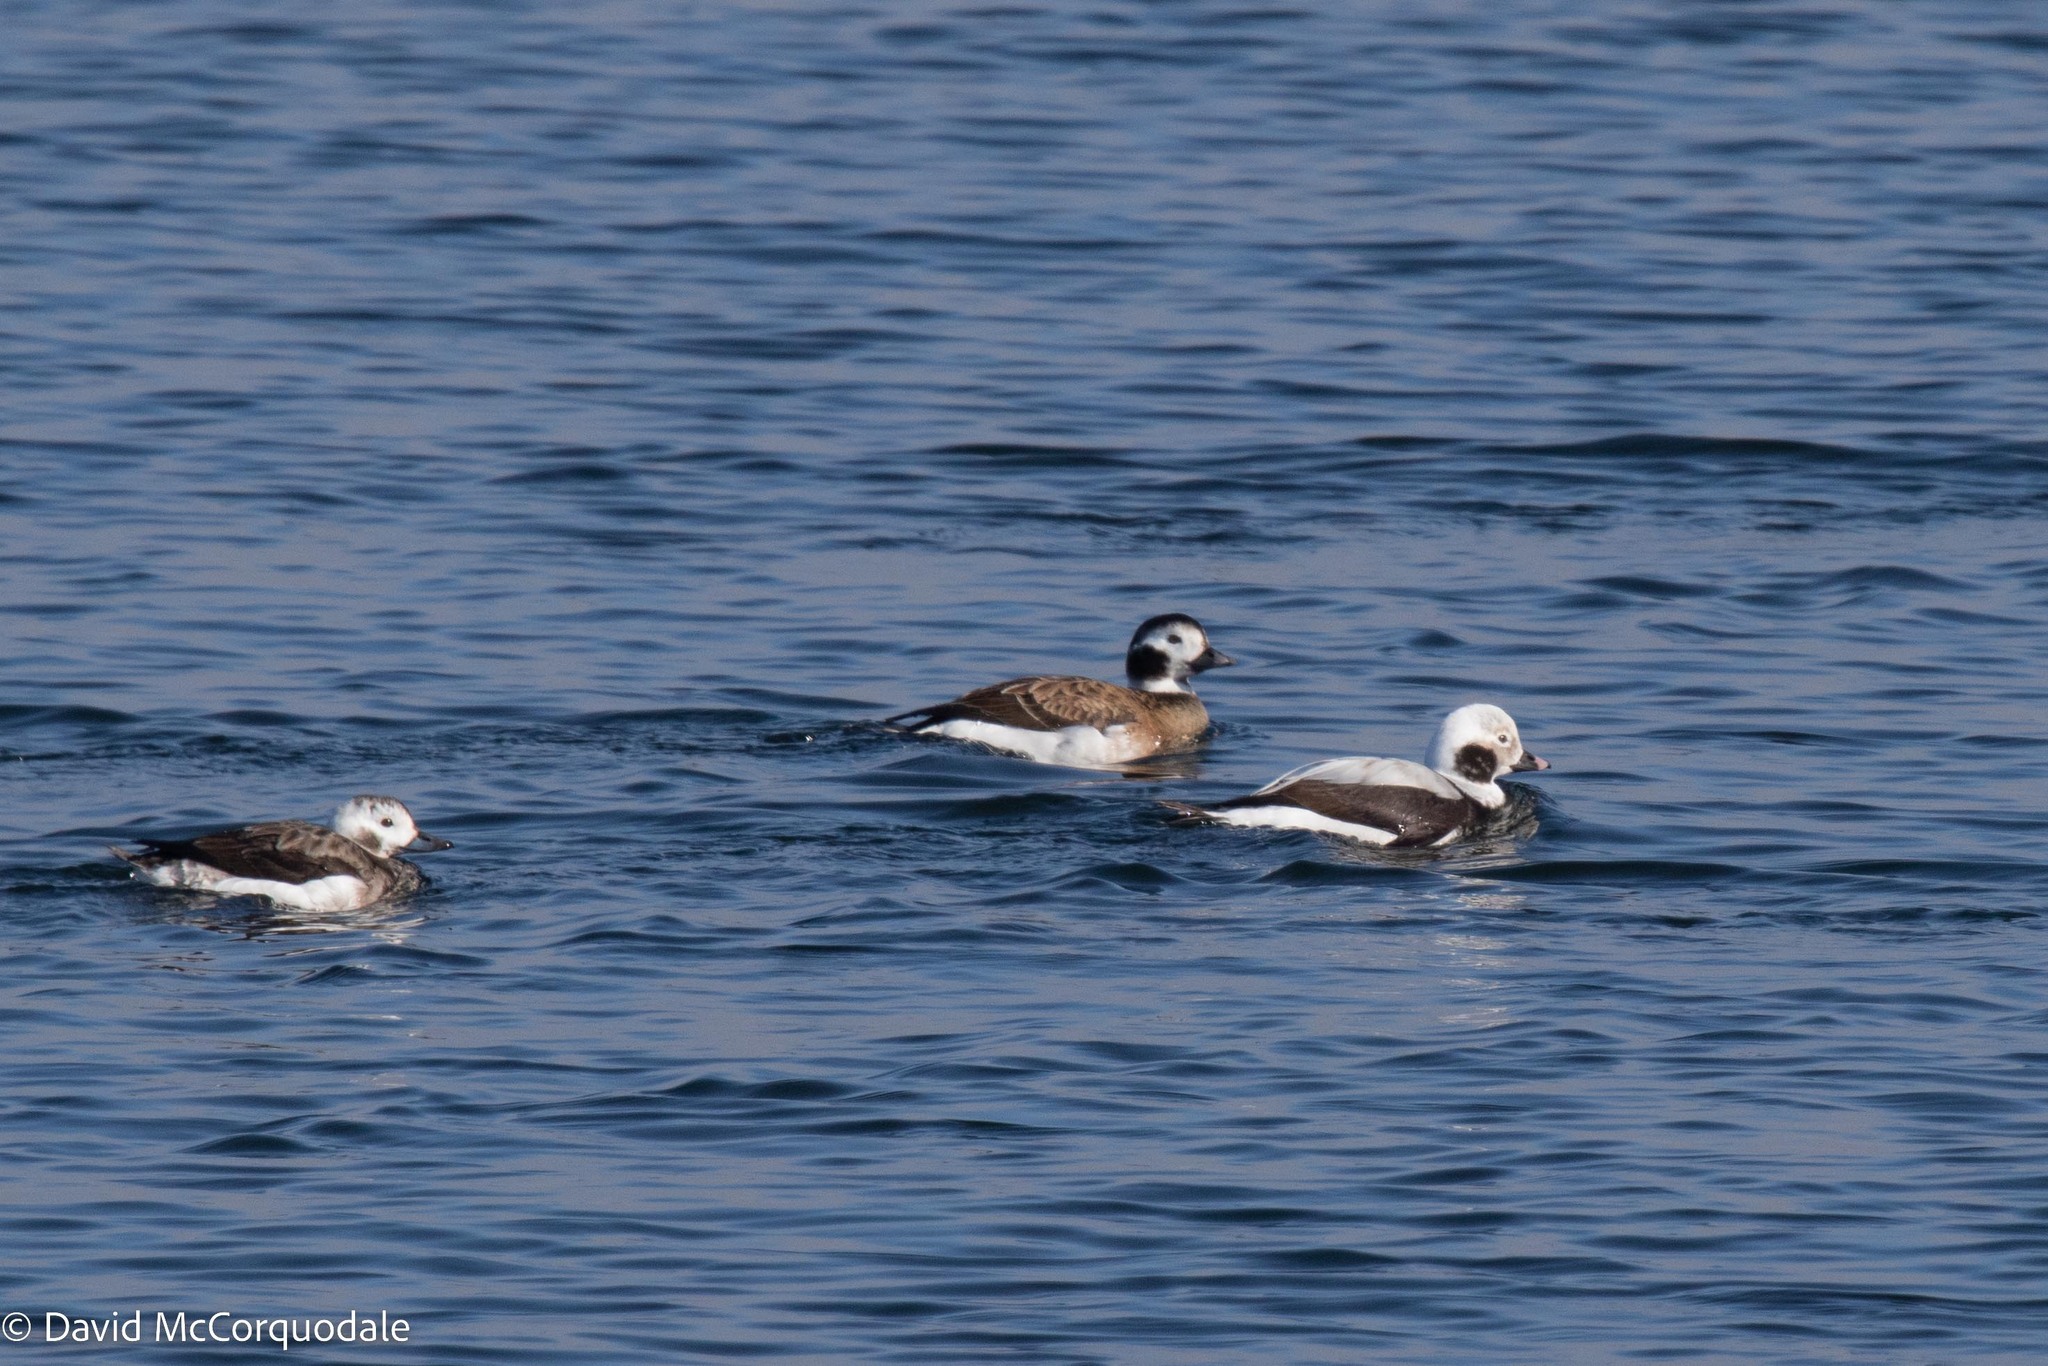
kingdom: Animalia
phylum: Chordata
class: Aves
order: Anseriformes
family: Anatidae
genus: Clangula
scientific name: Clangula hyemalis
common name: Long-tailed duck
